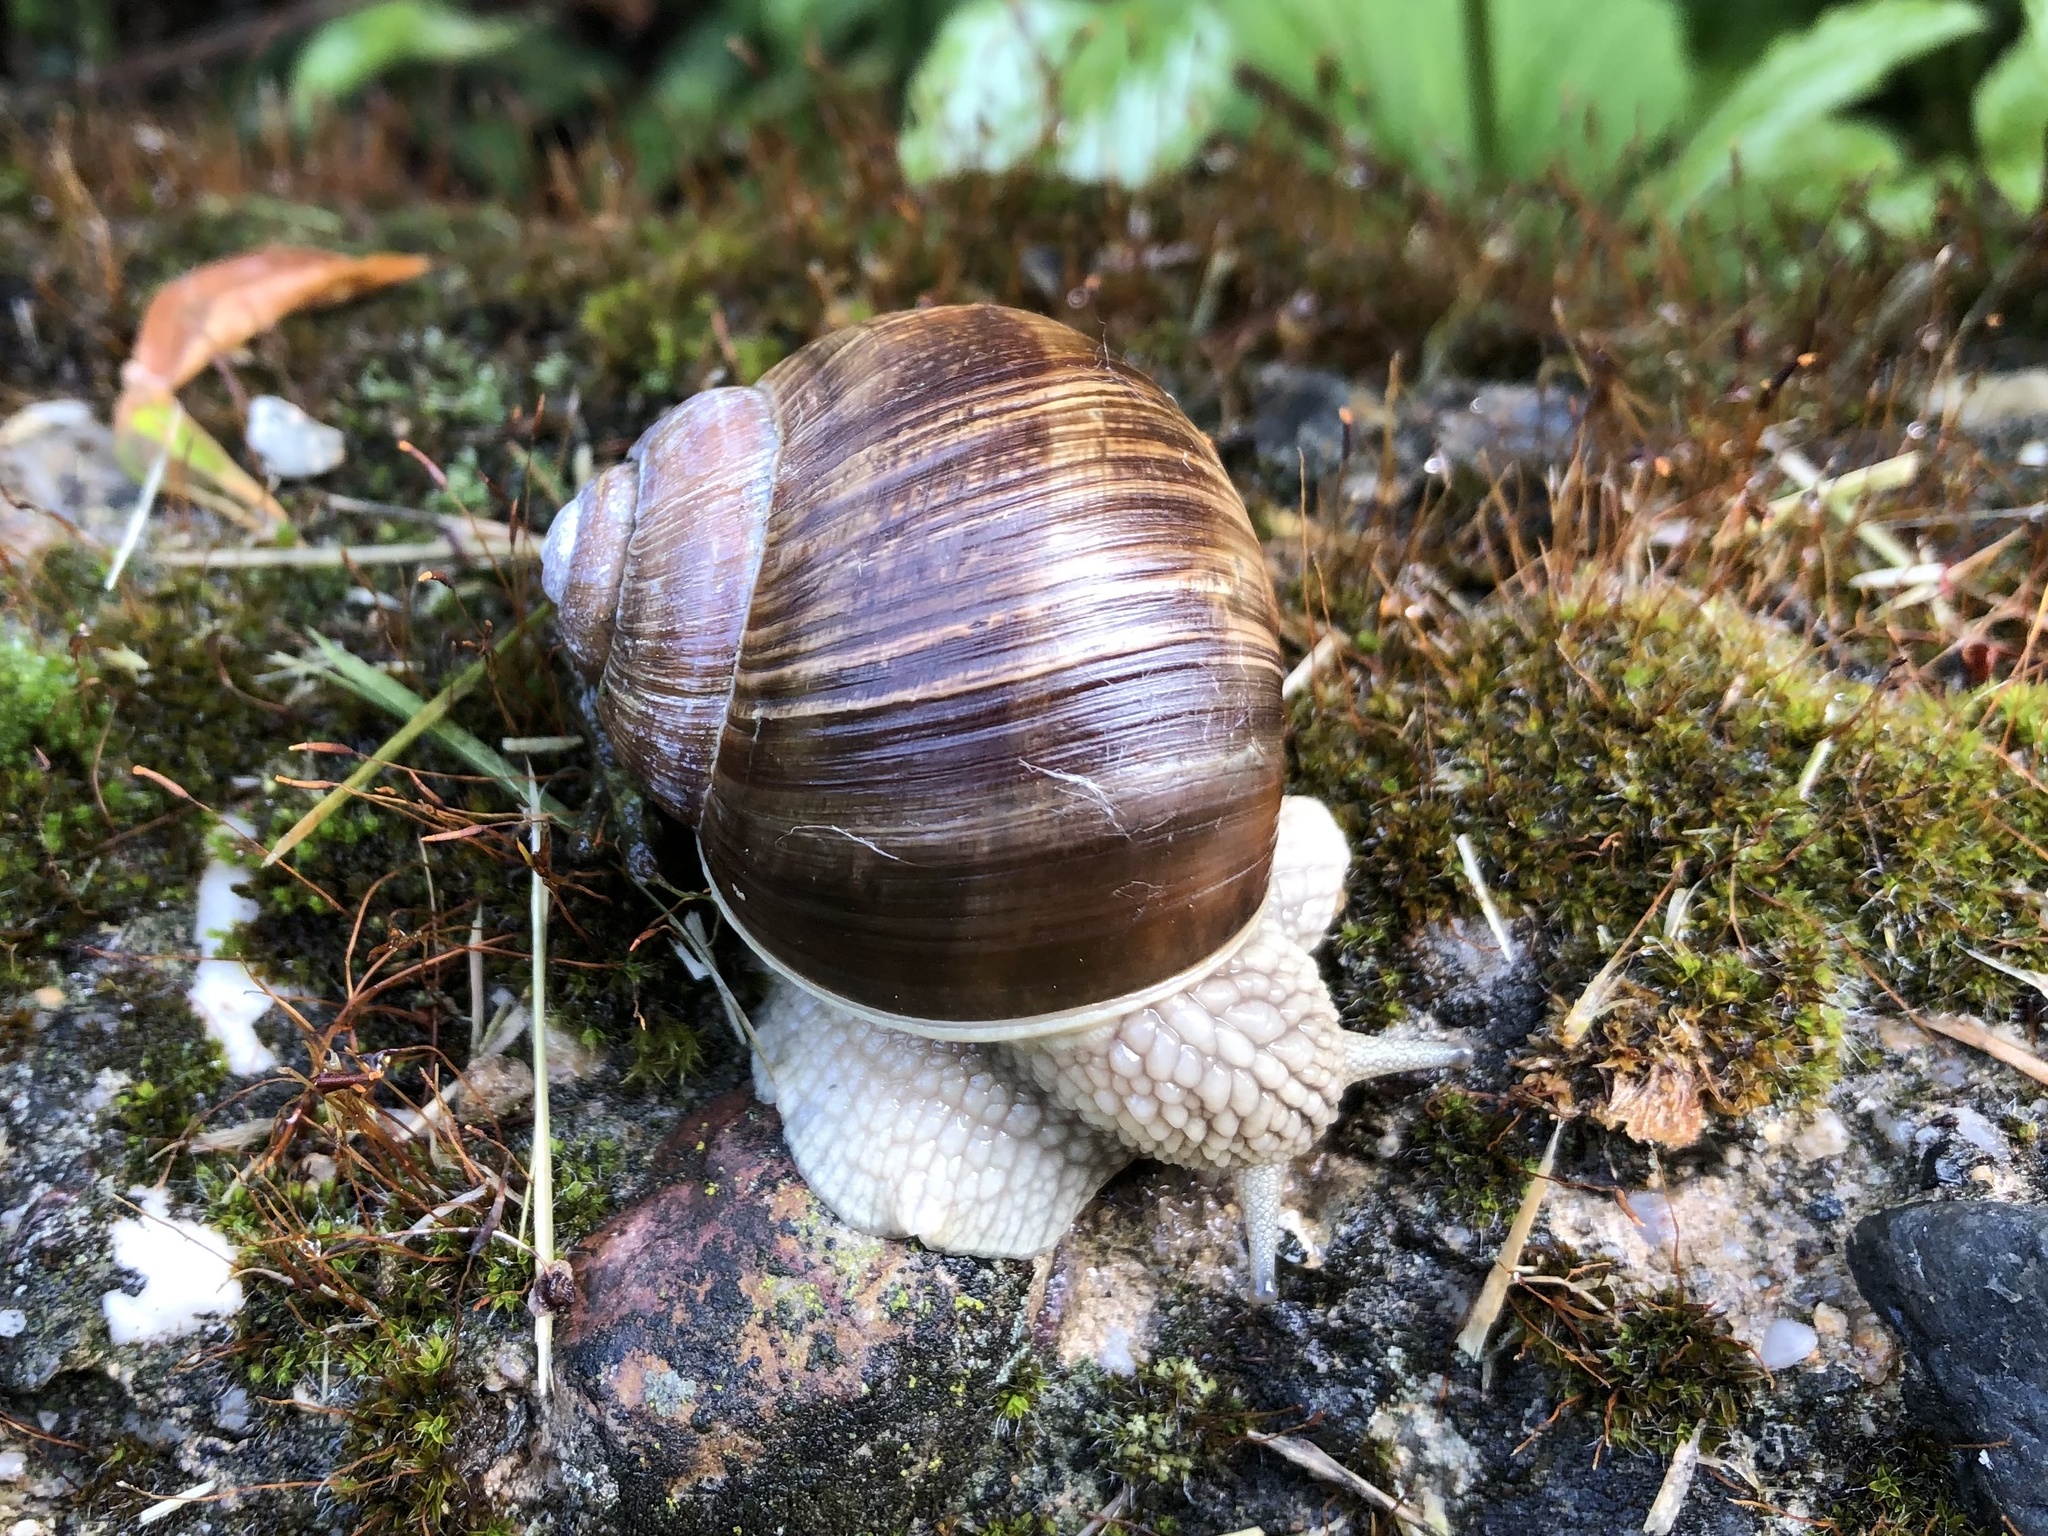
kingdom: Animalia
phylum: Mollusca
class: Gastropoda
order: Stylommatophora
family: Helicidae
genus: Helix
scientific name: Helix pomatia
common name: Roman snail
